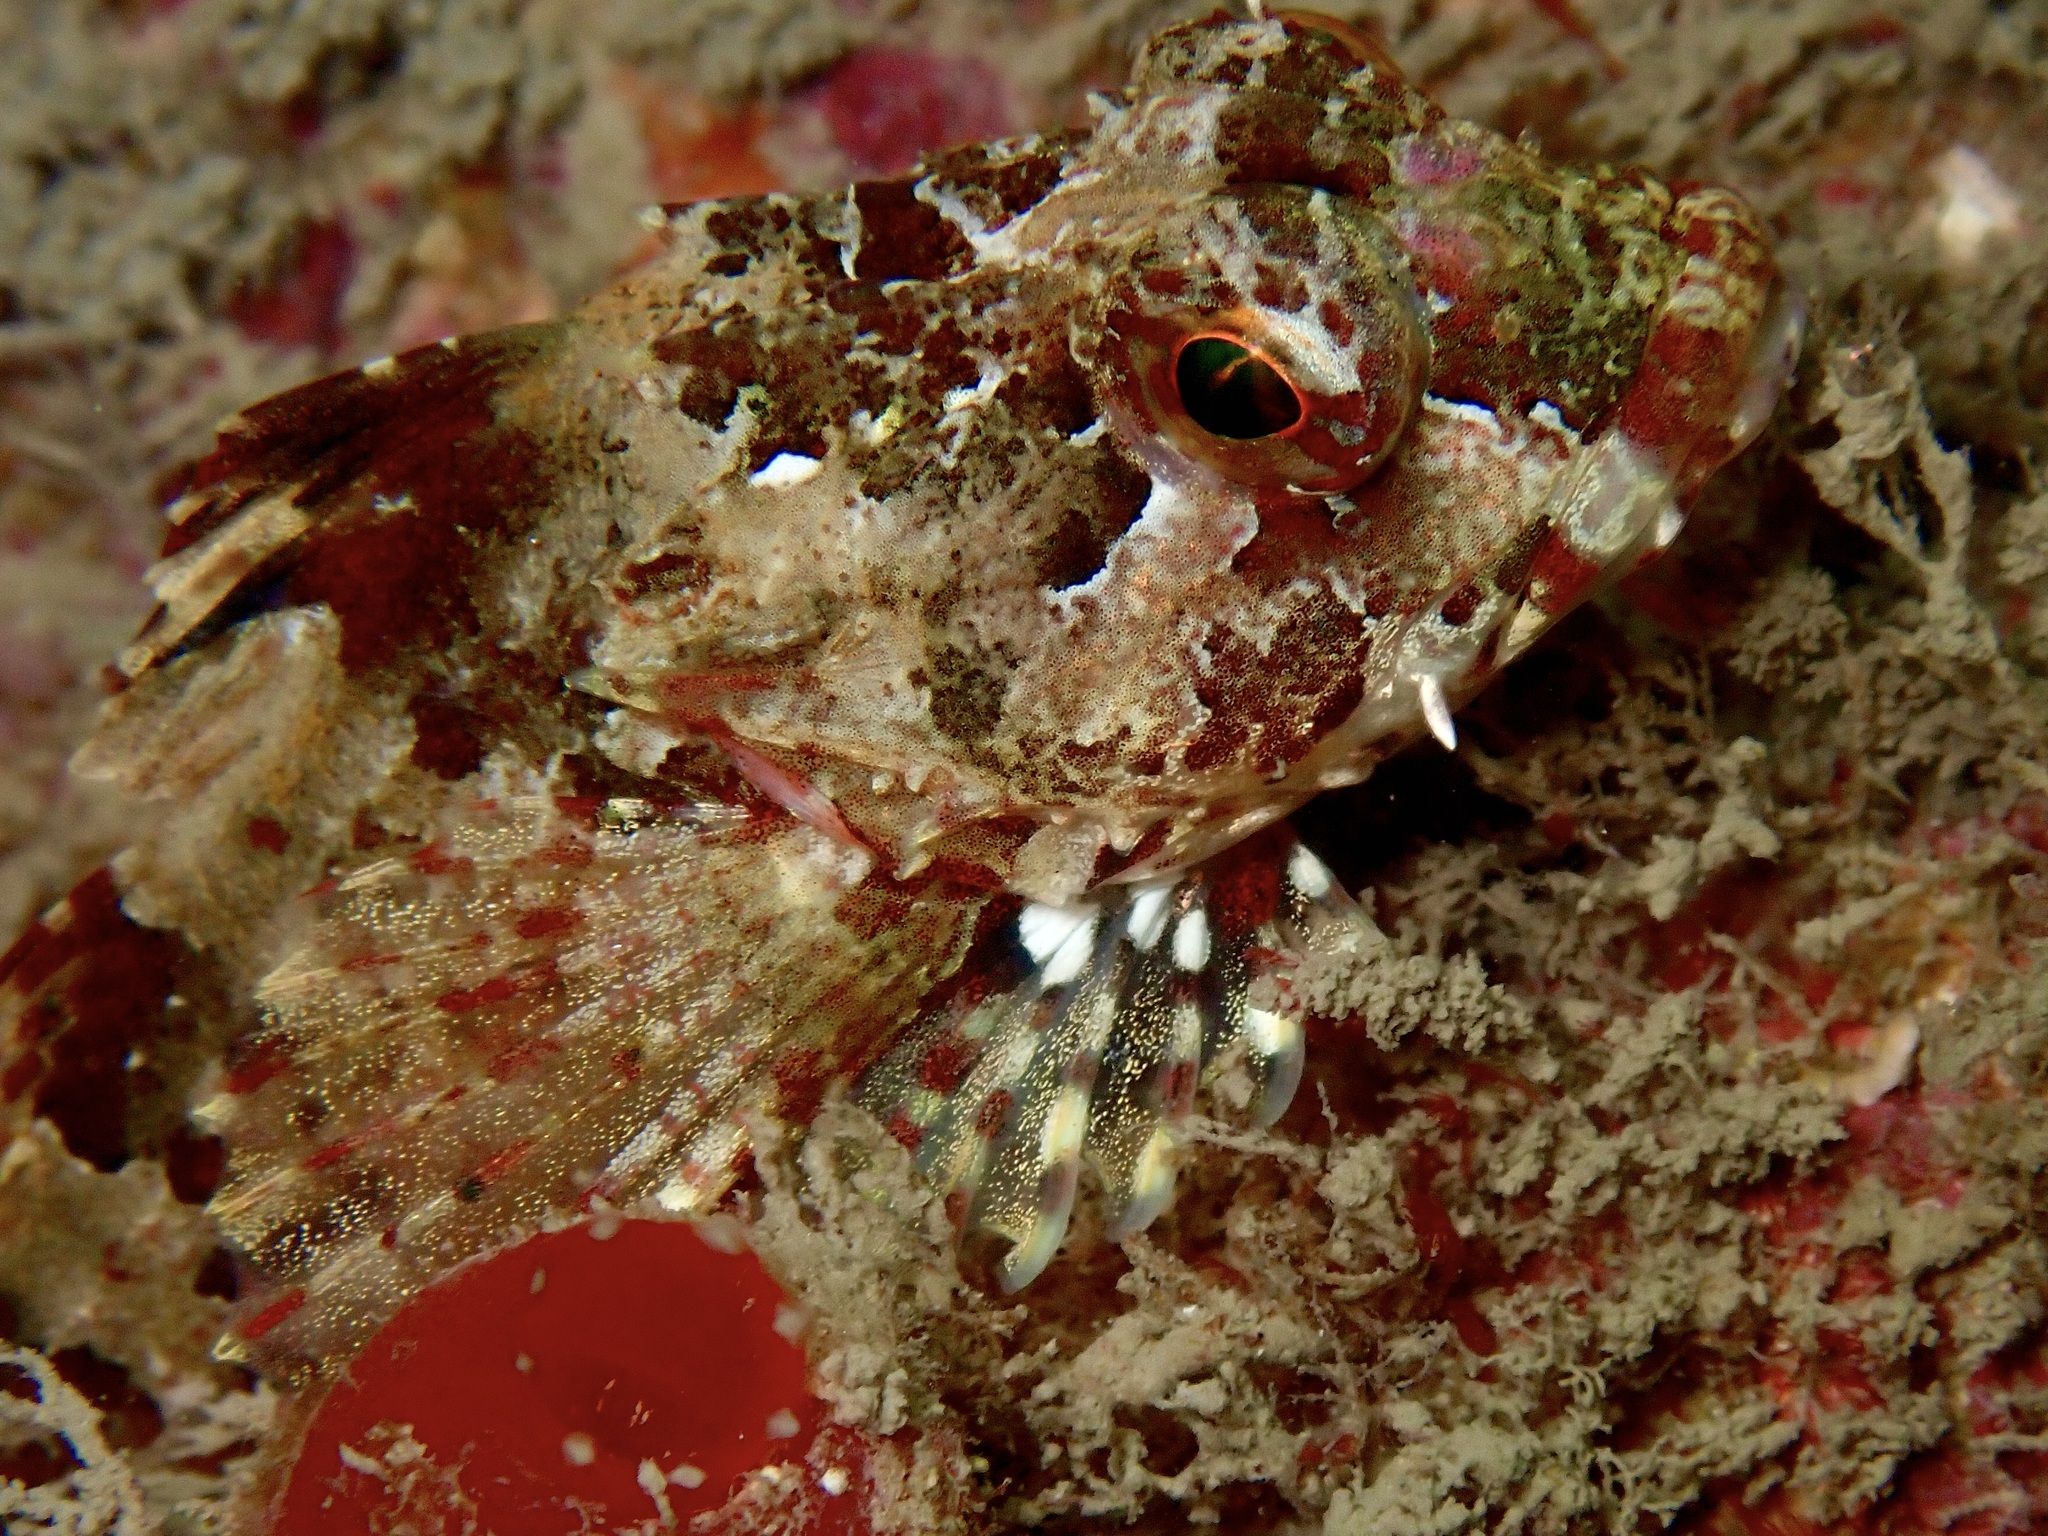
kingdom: Animalia
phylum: Chordata
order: Scorpaeniformes
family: Cottidae
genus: Taurulus
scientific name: Taurulus bubalis
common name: Sea scorpion
